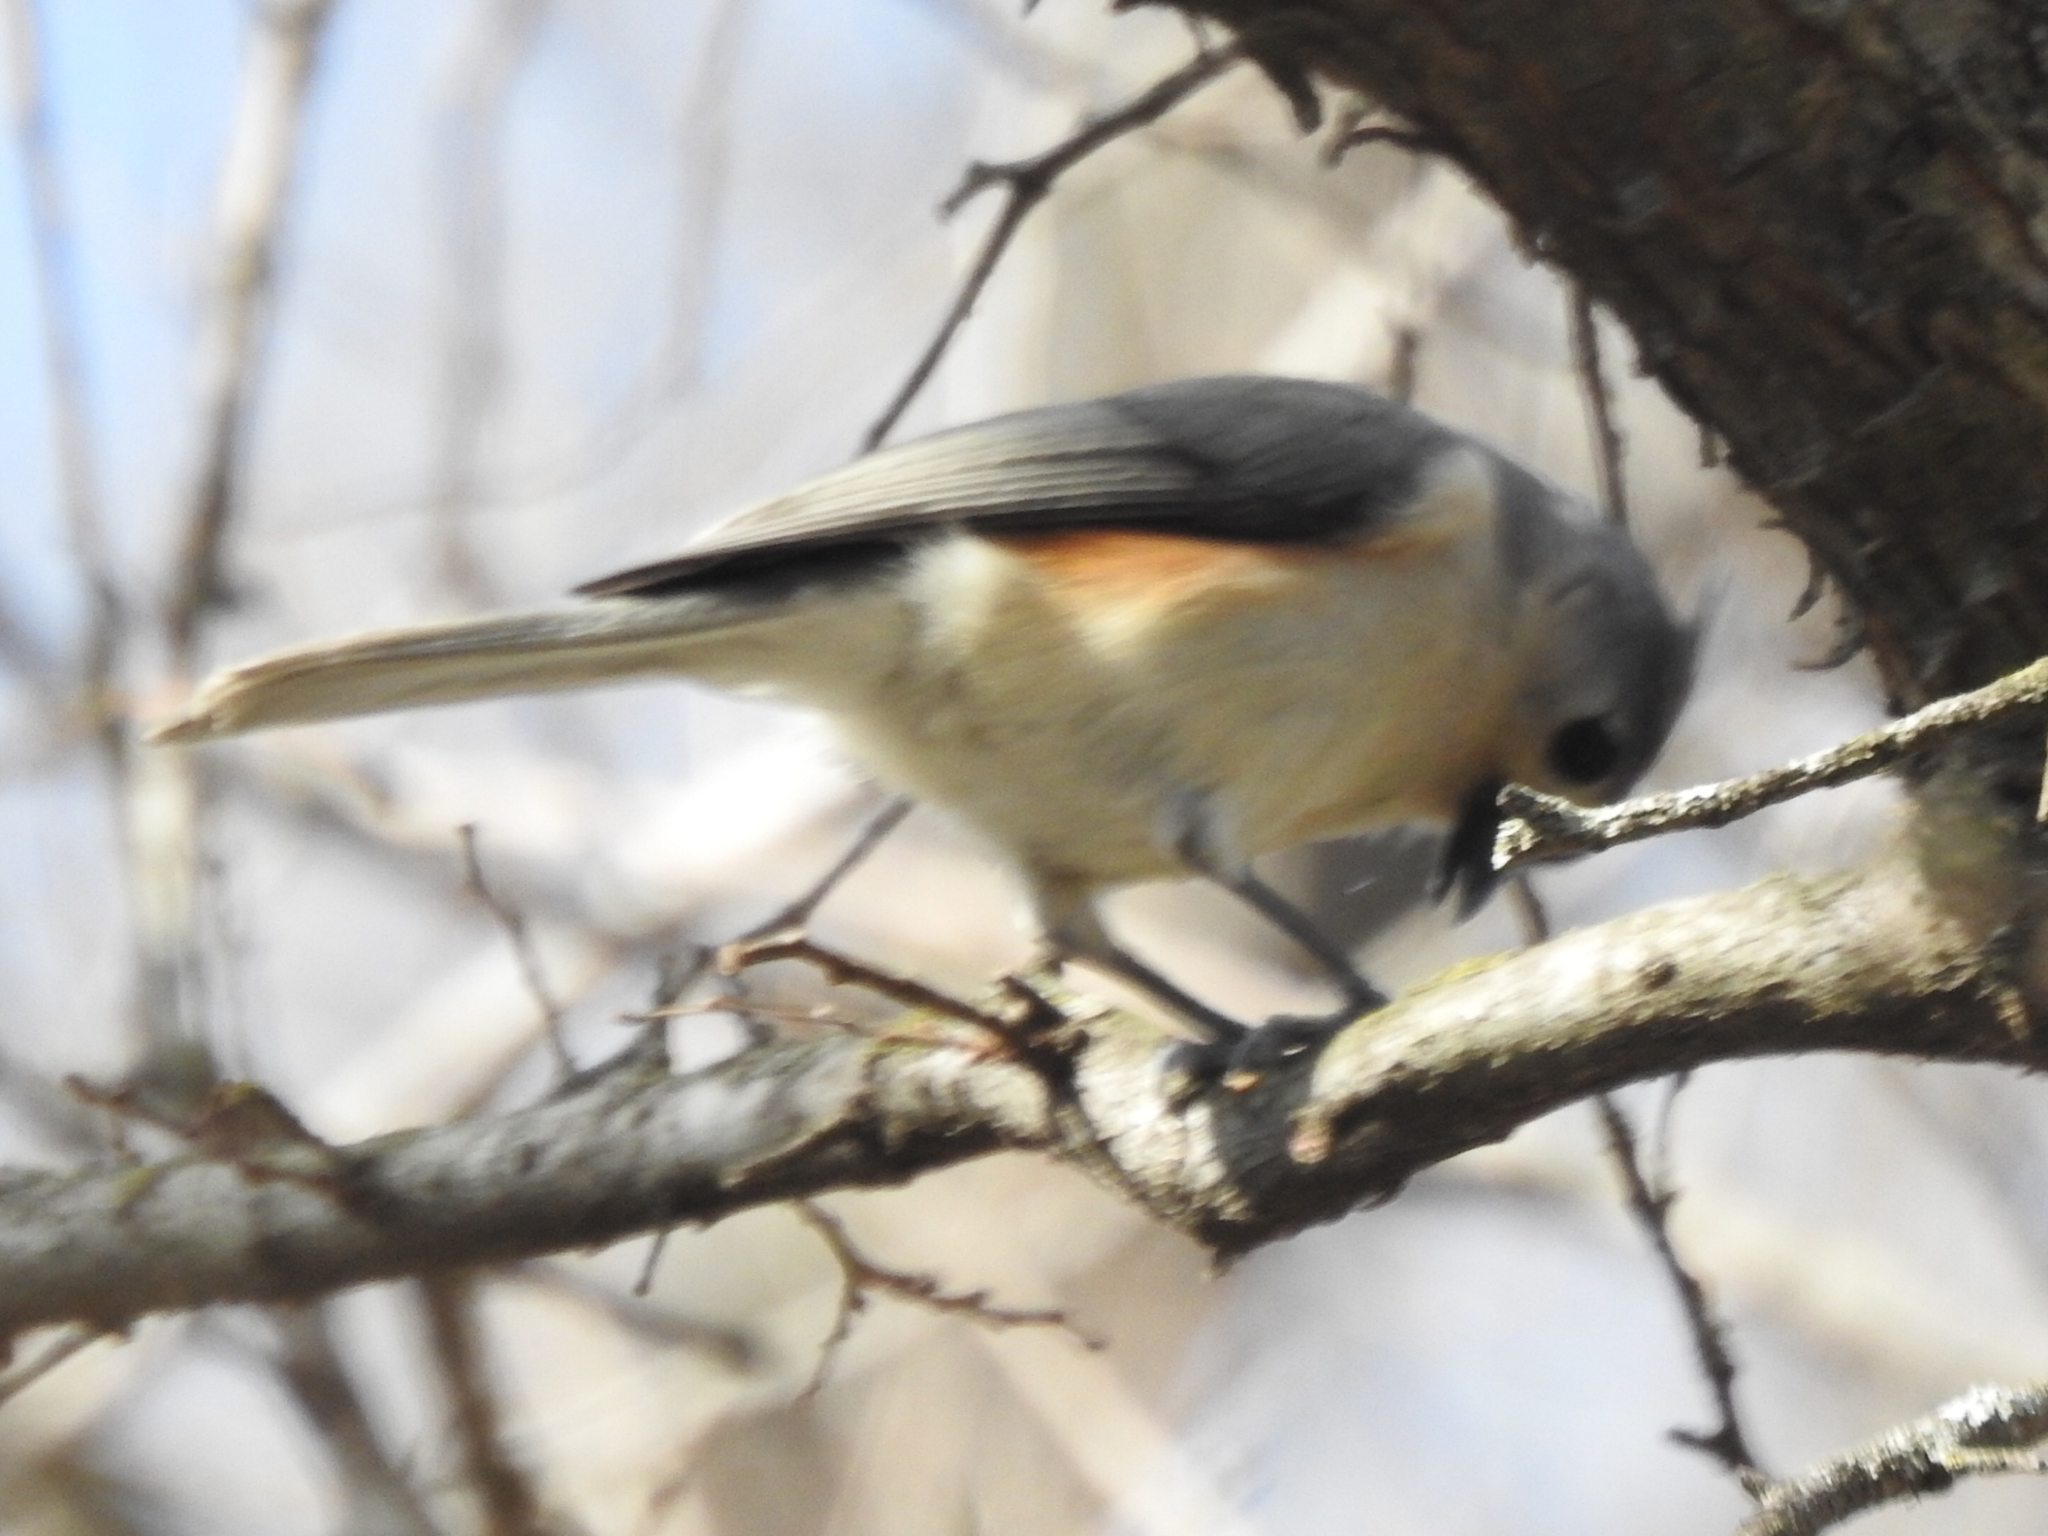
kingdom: Animalia
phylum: Chordata
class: Aves
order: Passeriformes
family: Paridae
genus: Baeolophus
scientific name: Baeolophus bicolor
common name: Tufted titmouse
